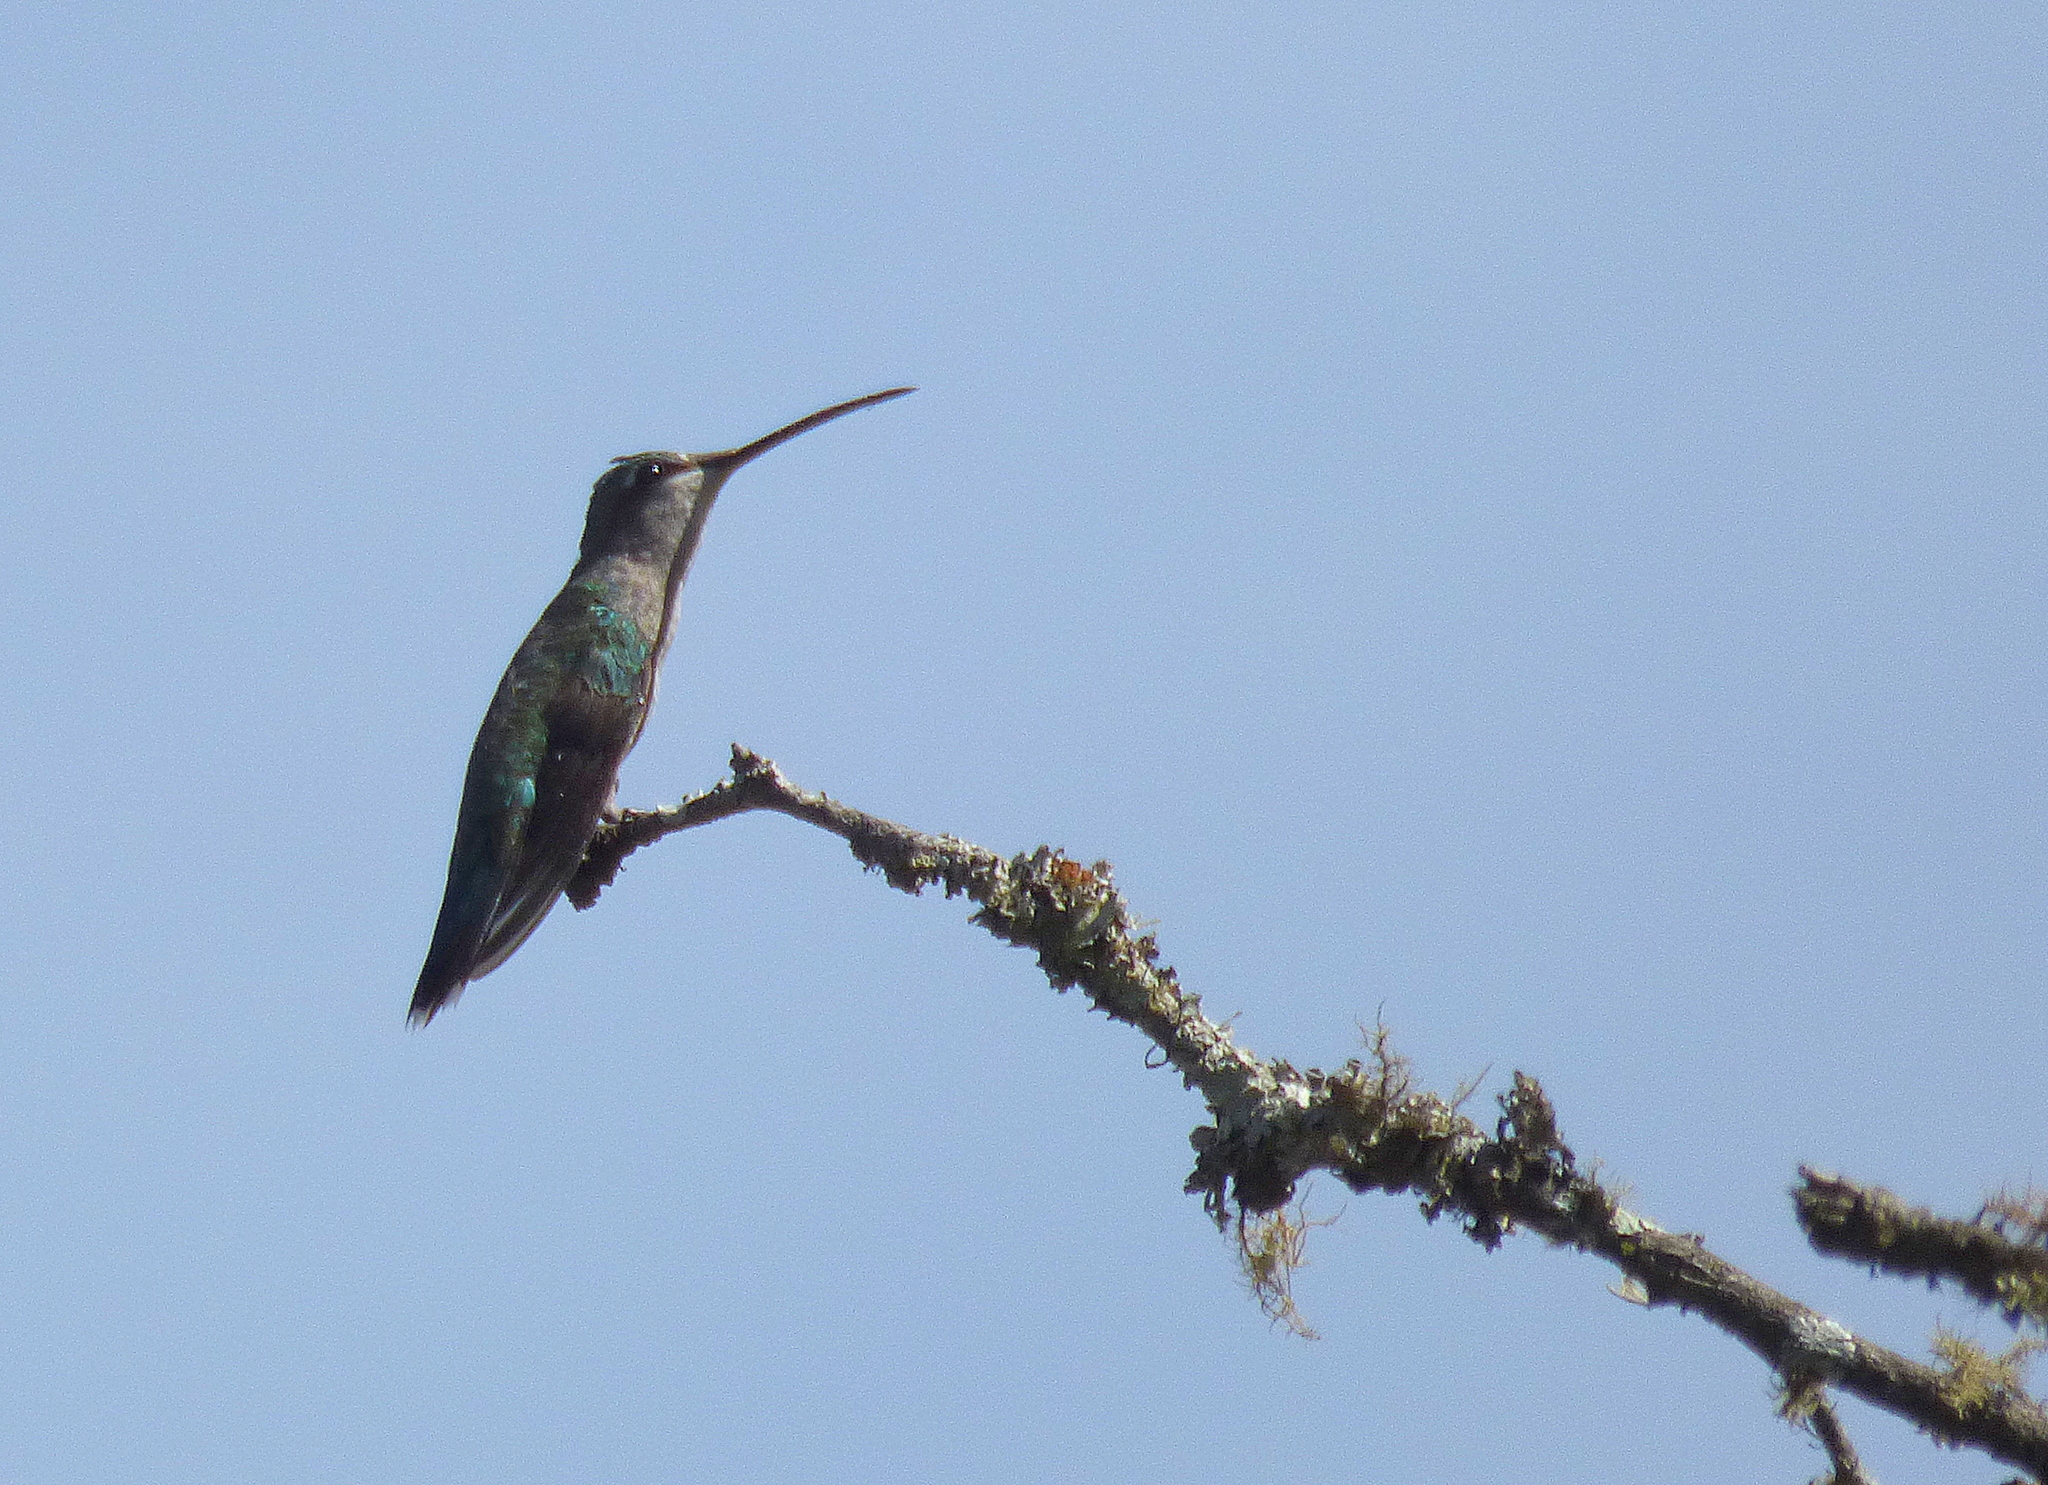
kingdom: Animalia
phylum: Chordata
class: Aves
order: Apodiformes
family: Trochilidae
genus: Heliomaster
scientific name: Heliomaster furcifer
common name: Blue-tufted starthroat
